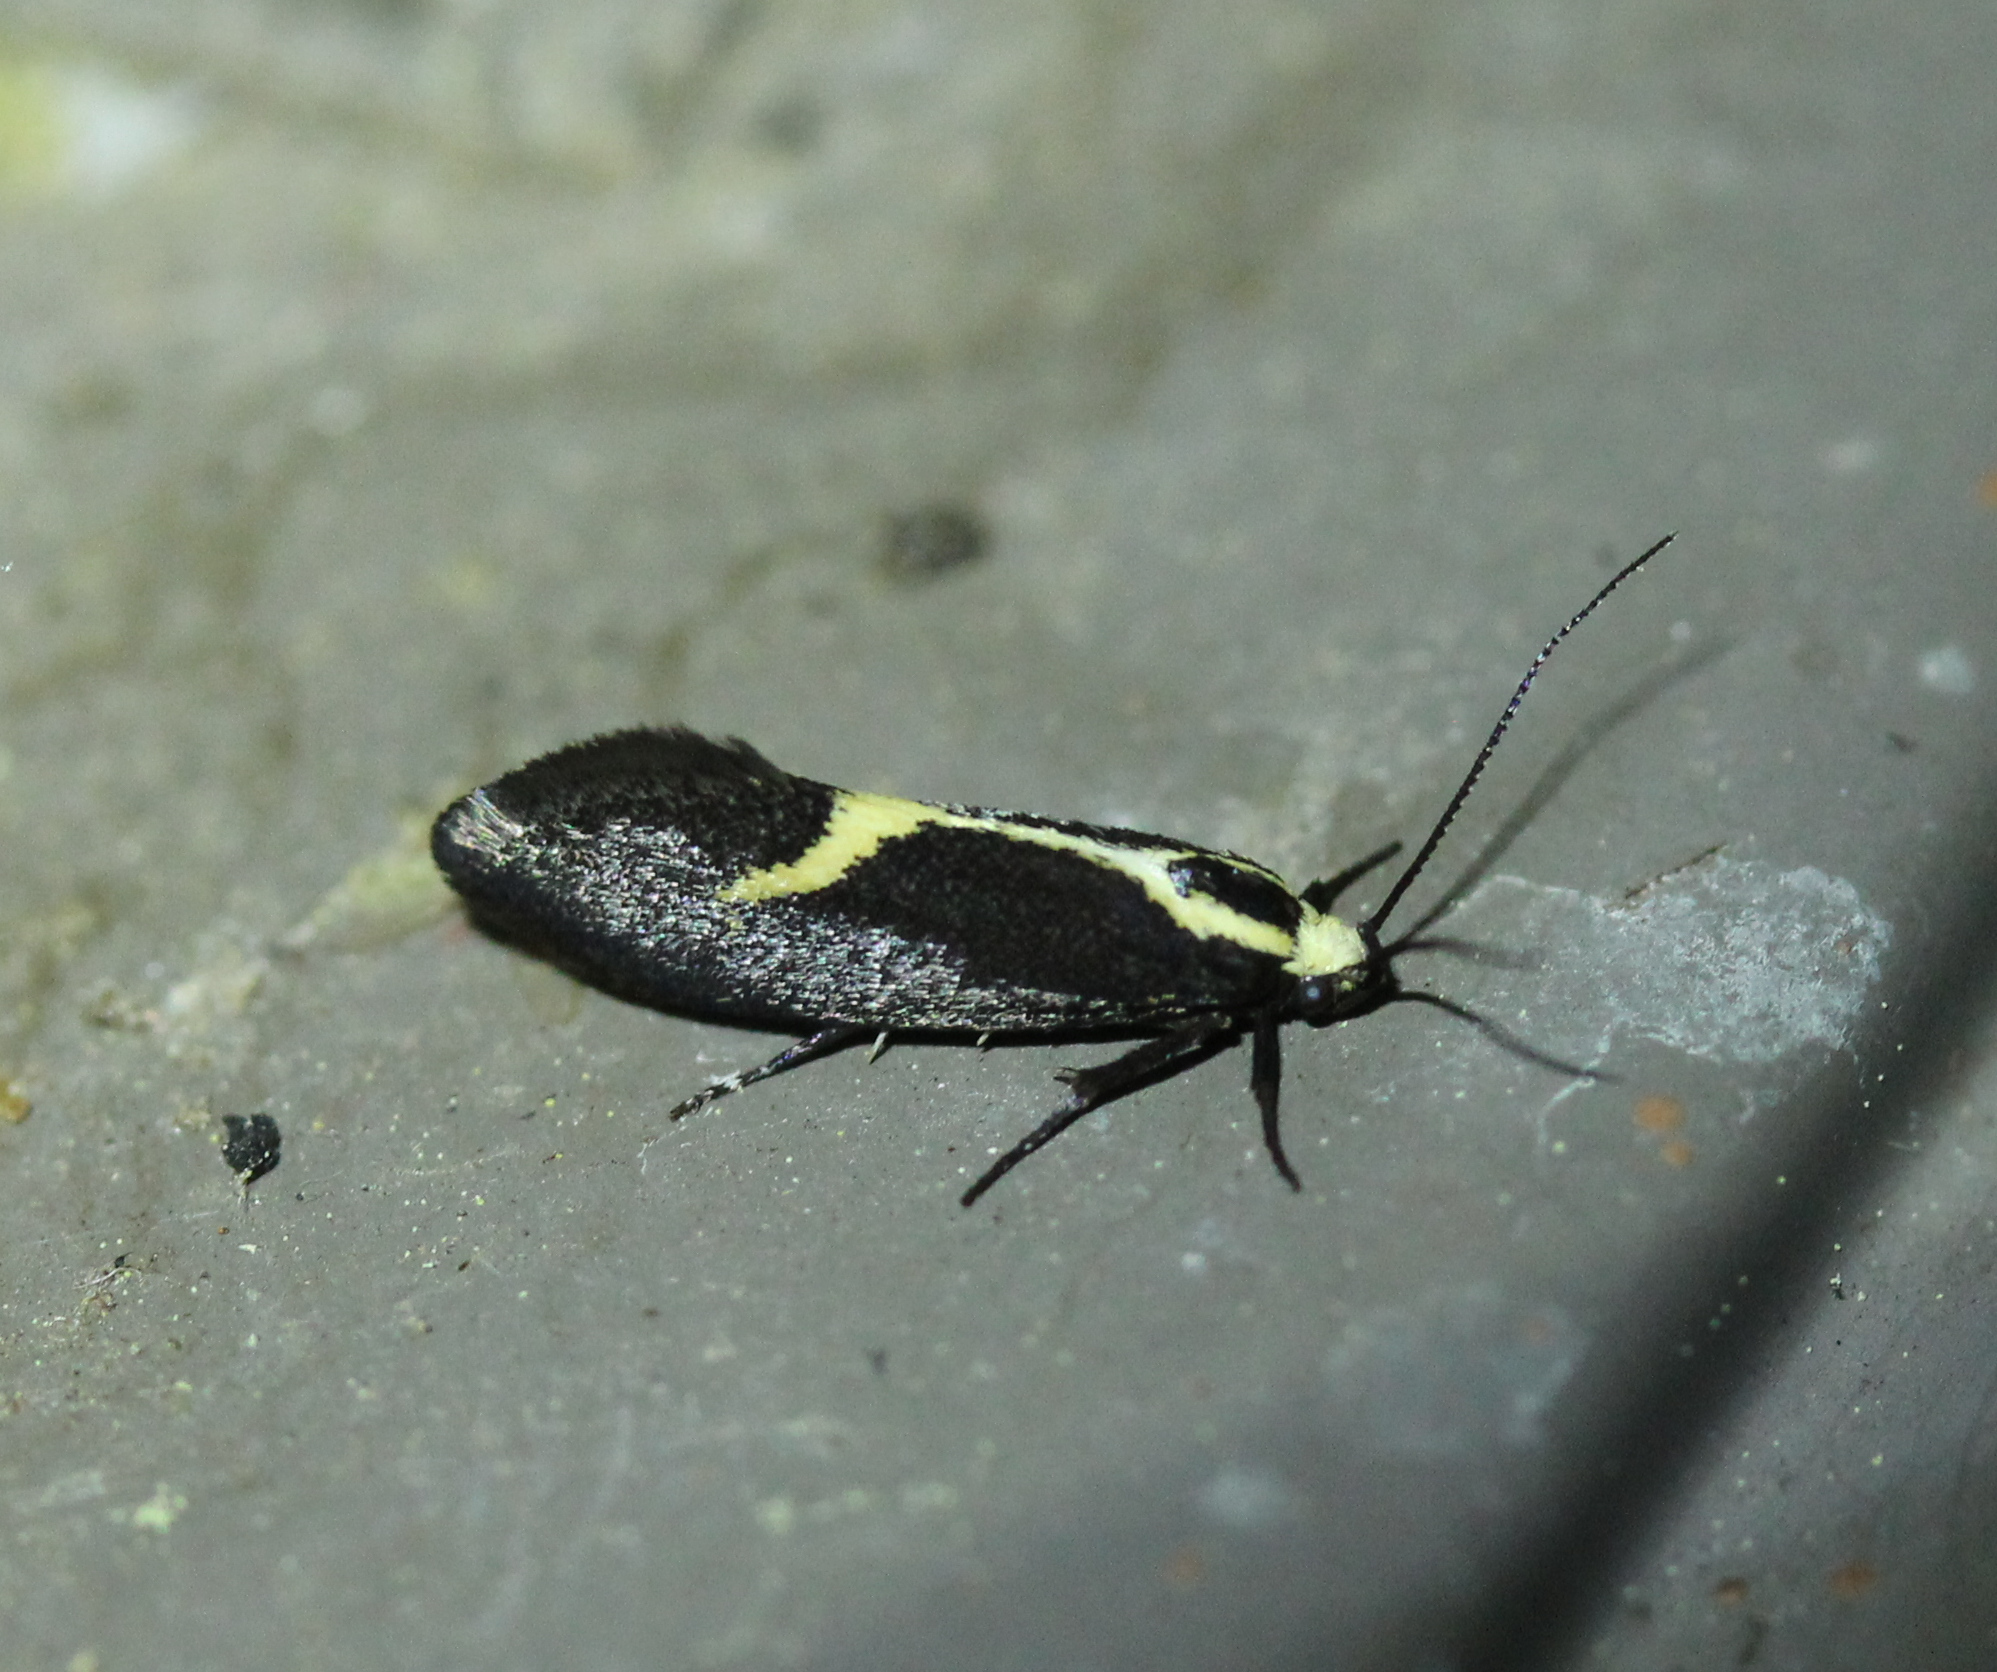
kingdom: Animalia
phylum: Arthropoda
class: Insecta
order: Lepidoptera
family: Oecophoridae
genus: Polix
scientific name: Polix coloradella
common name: Skunk moth
